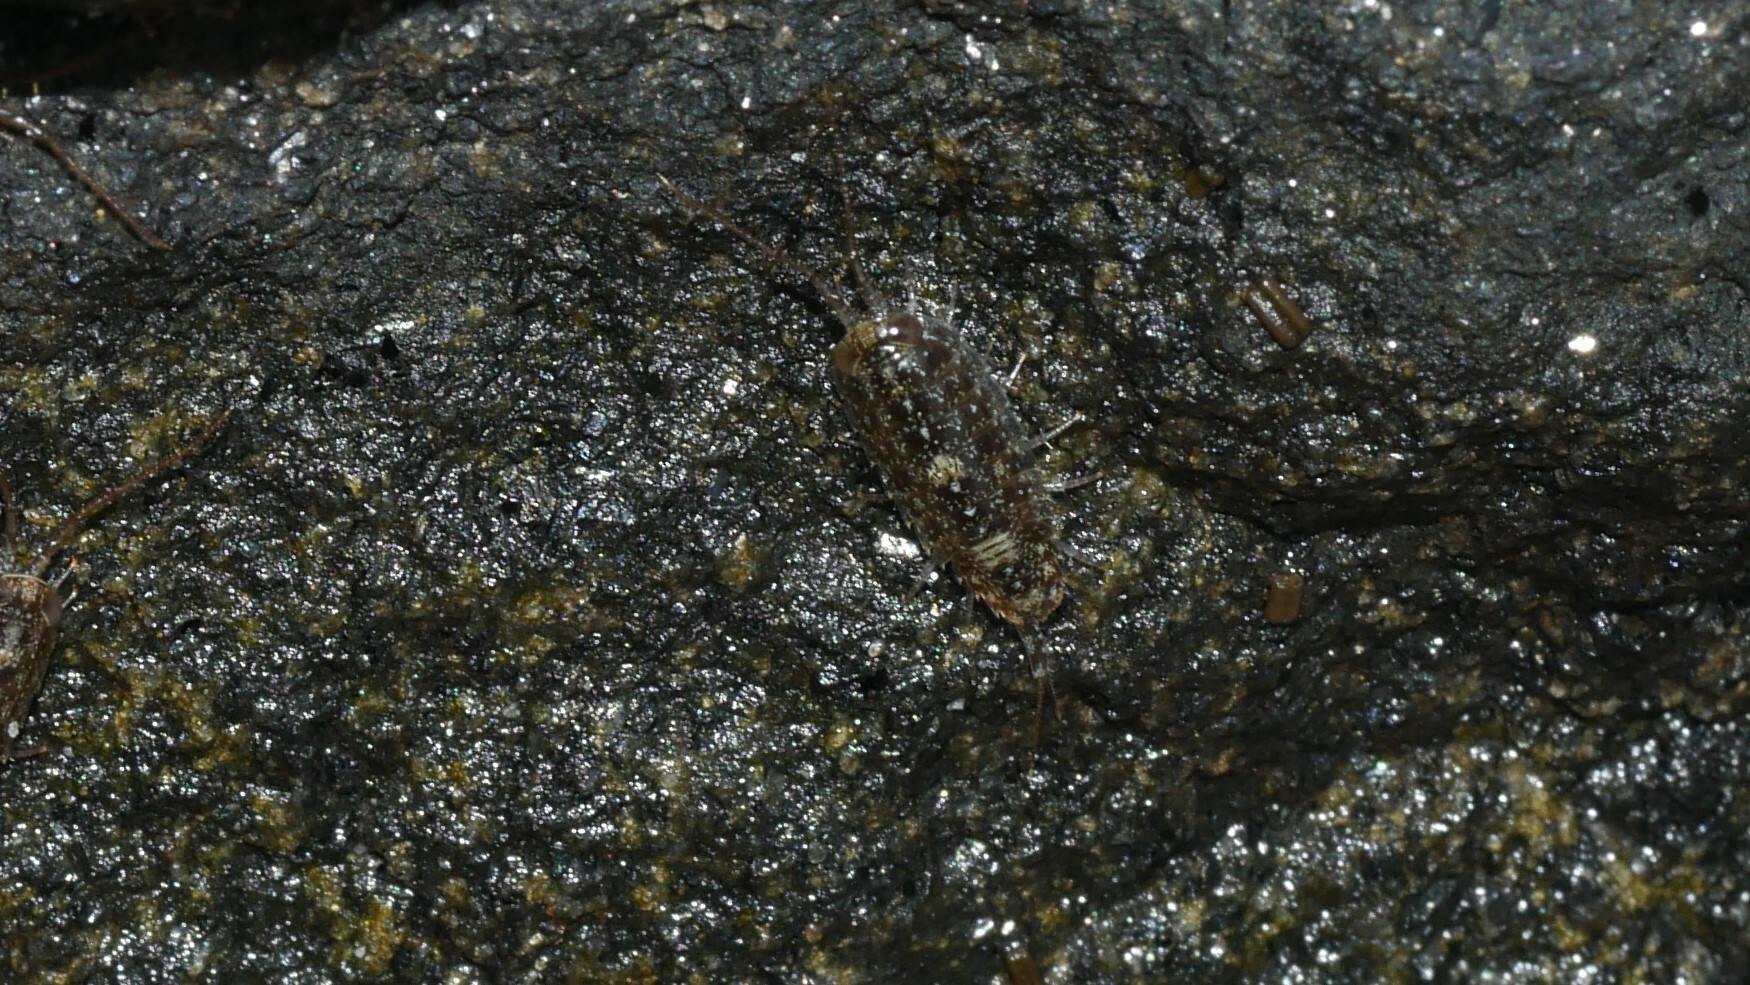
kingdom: Animalia
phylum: Arthropoda
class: Malacostraca
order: Isopoda
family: Ligiidae
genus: Ligia
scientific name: Ligia exotica
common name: Wharf roach
